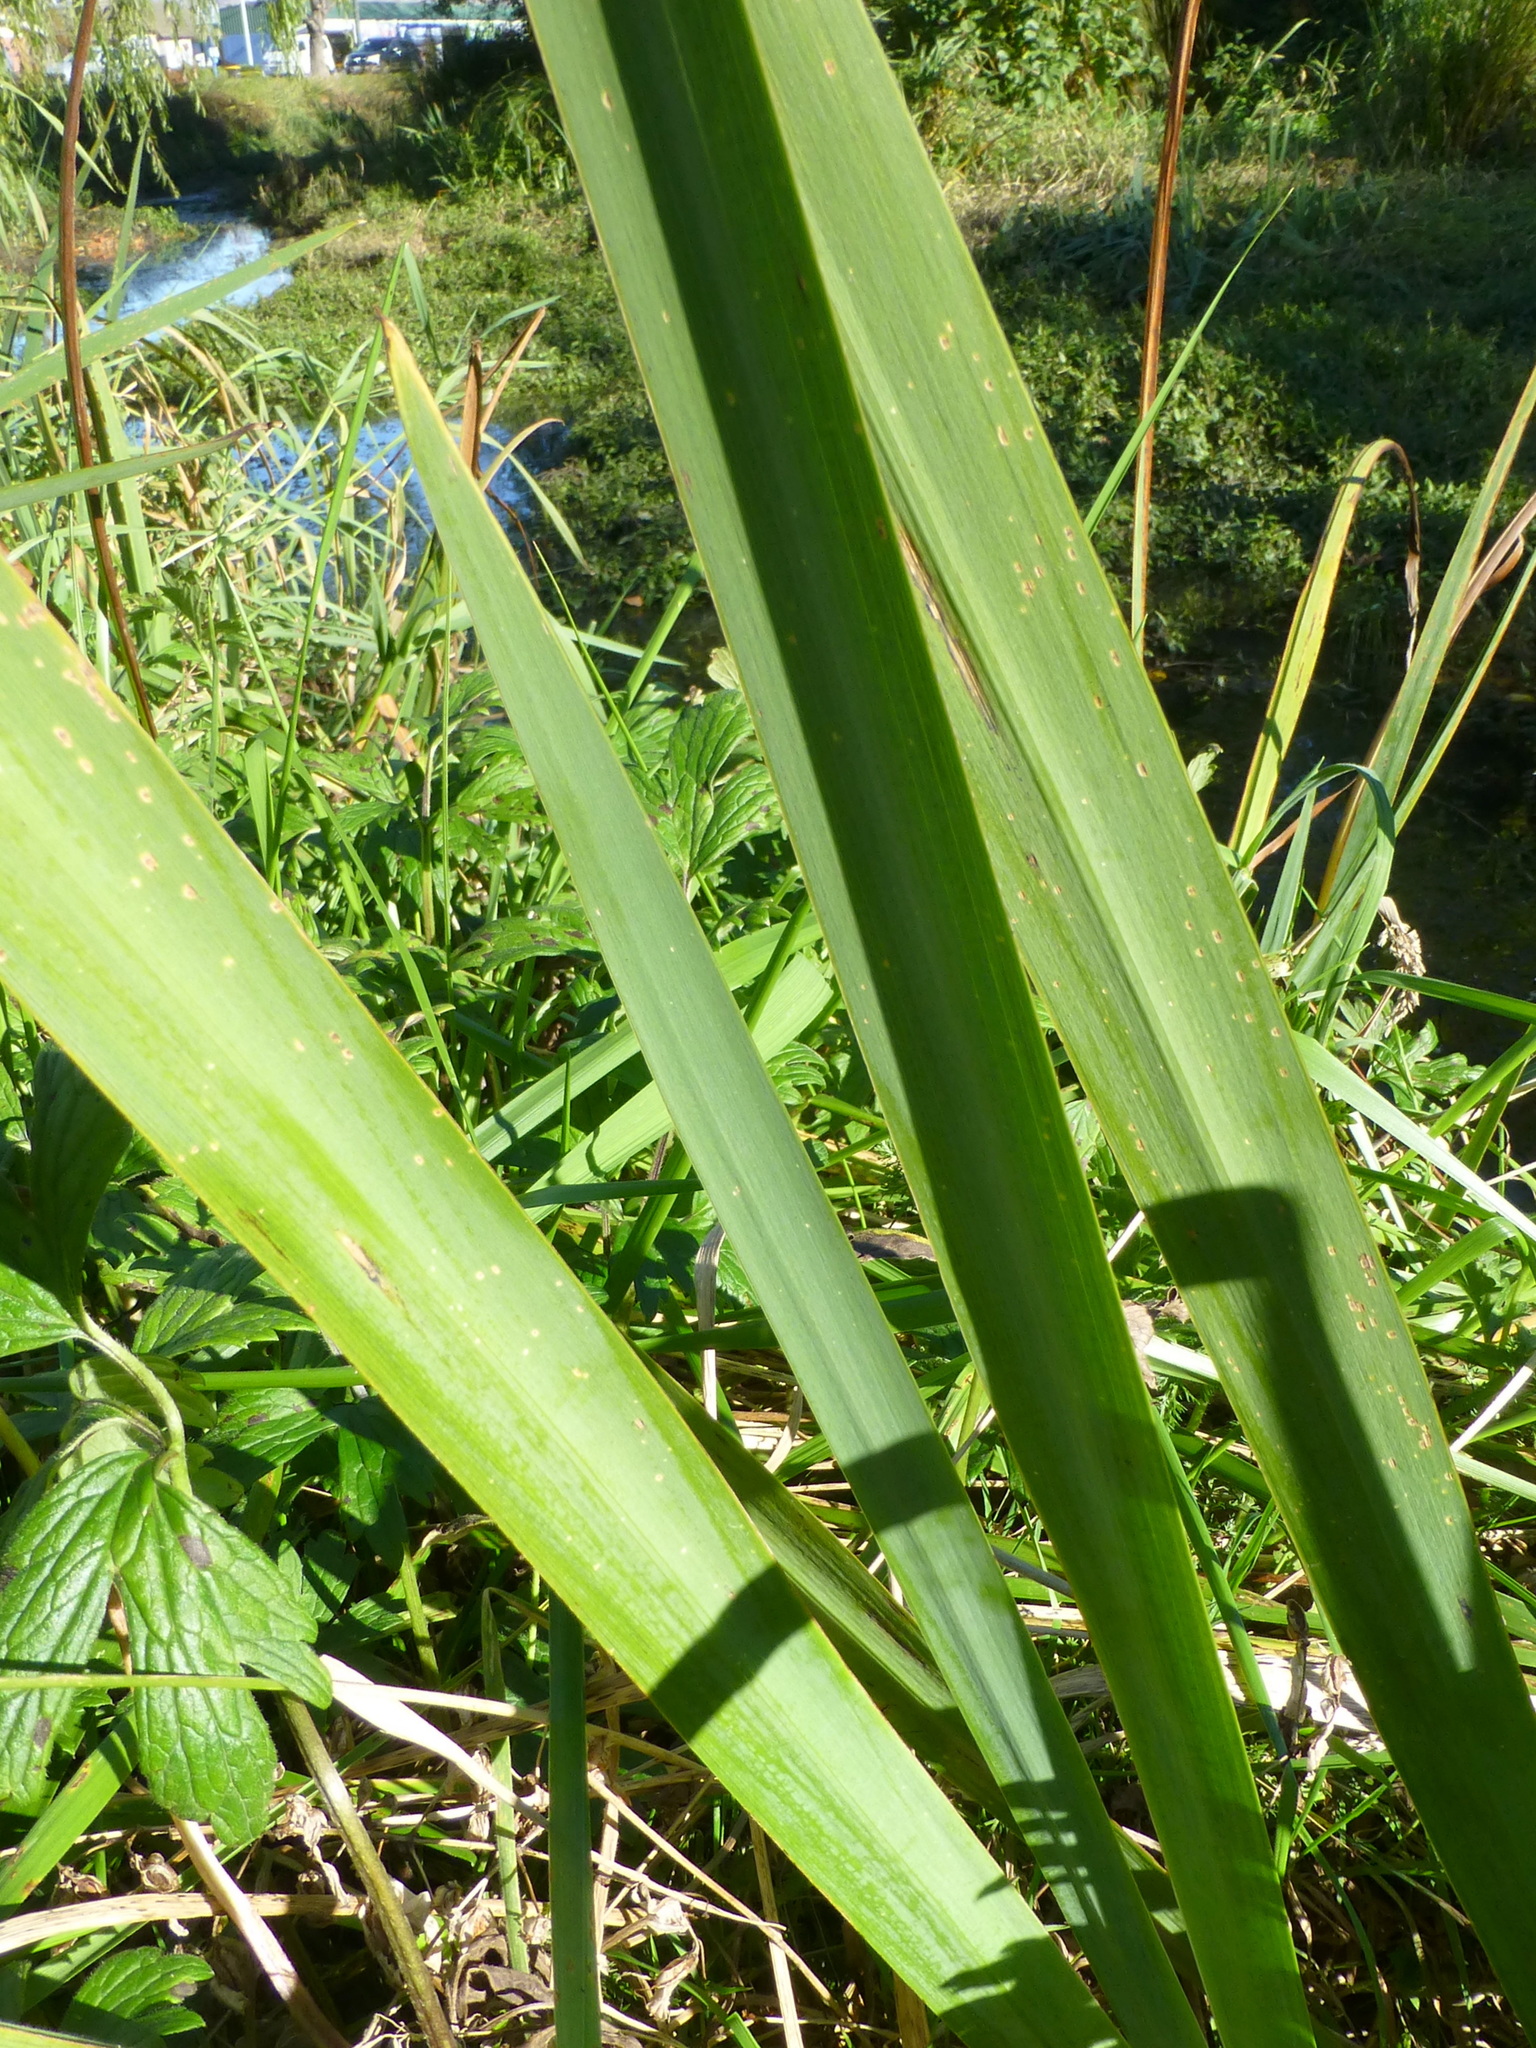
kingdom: Plantae
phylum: Tracheophyta
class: Liliopsida
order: Asparagales
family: Iridaceae
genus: Iris
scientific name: Iris pseudacorus
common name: Yellow flag
